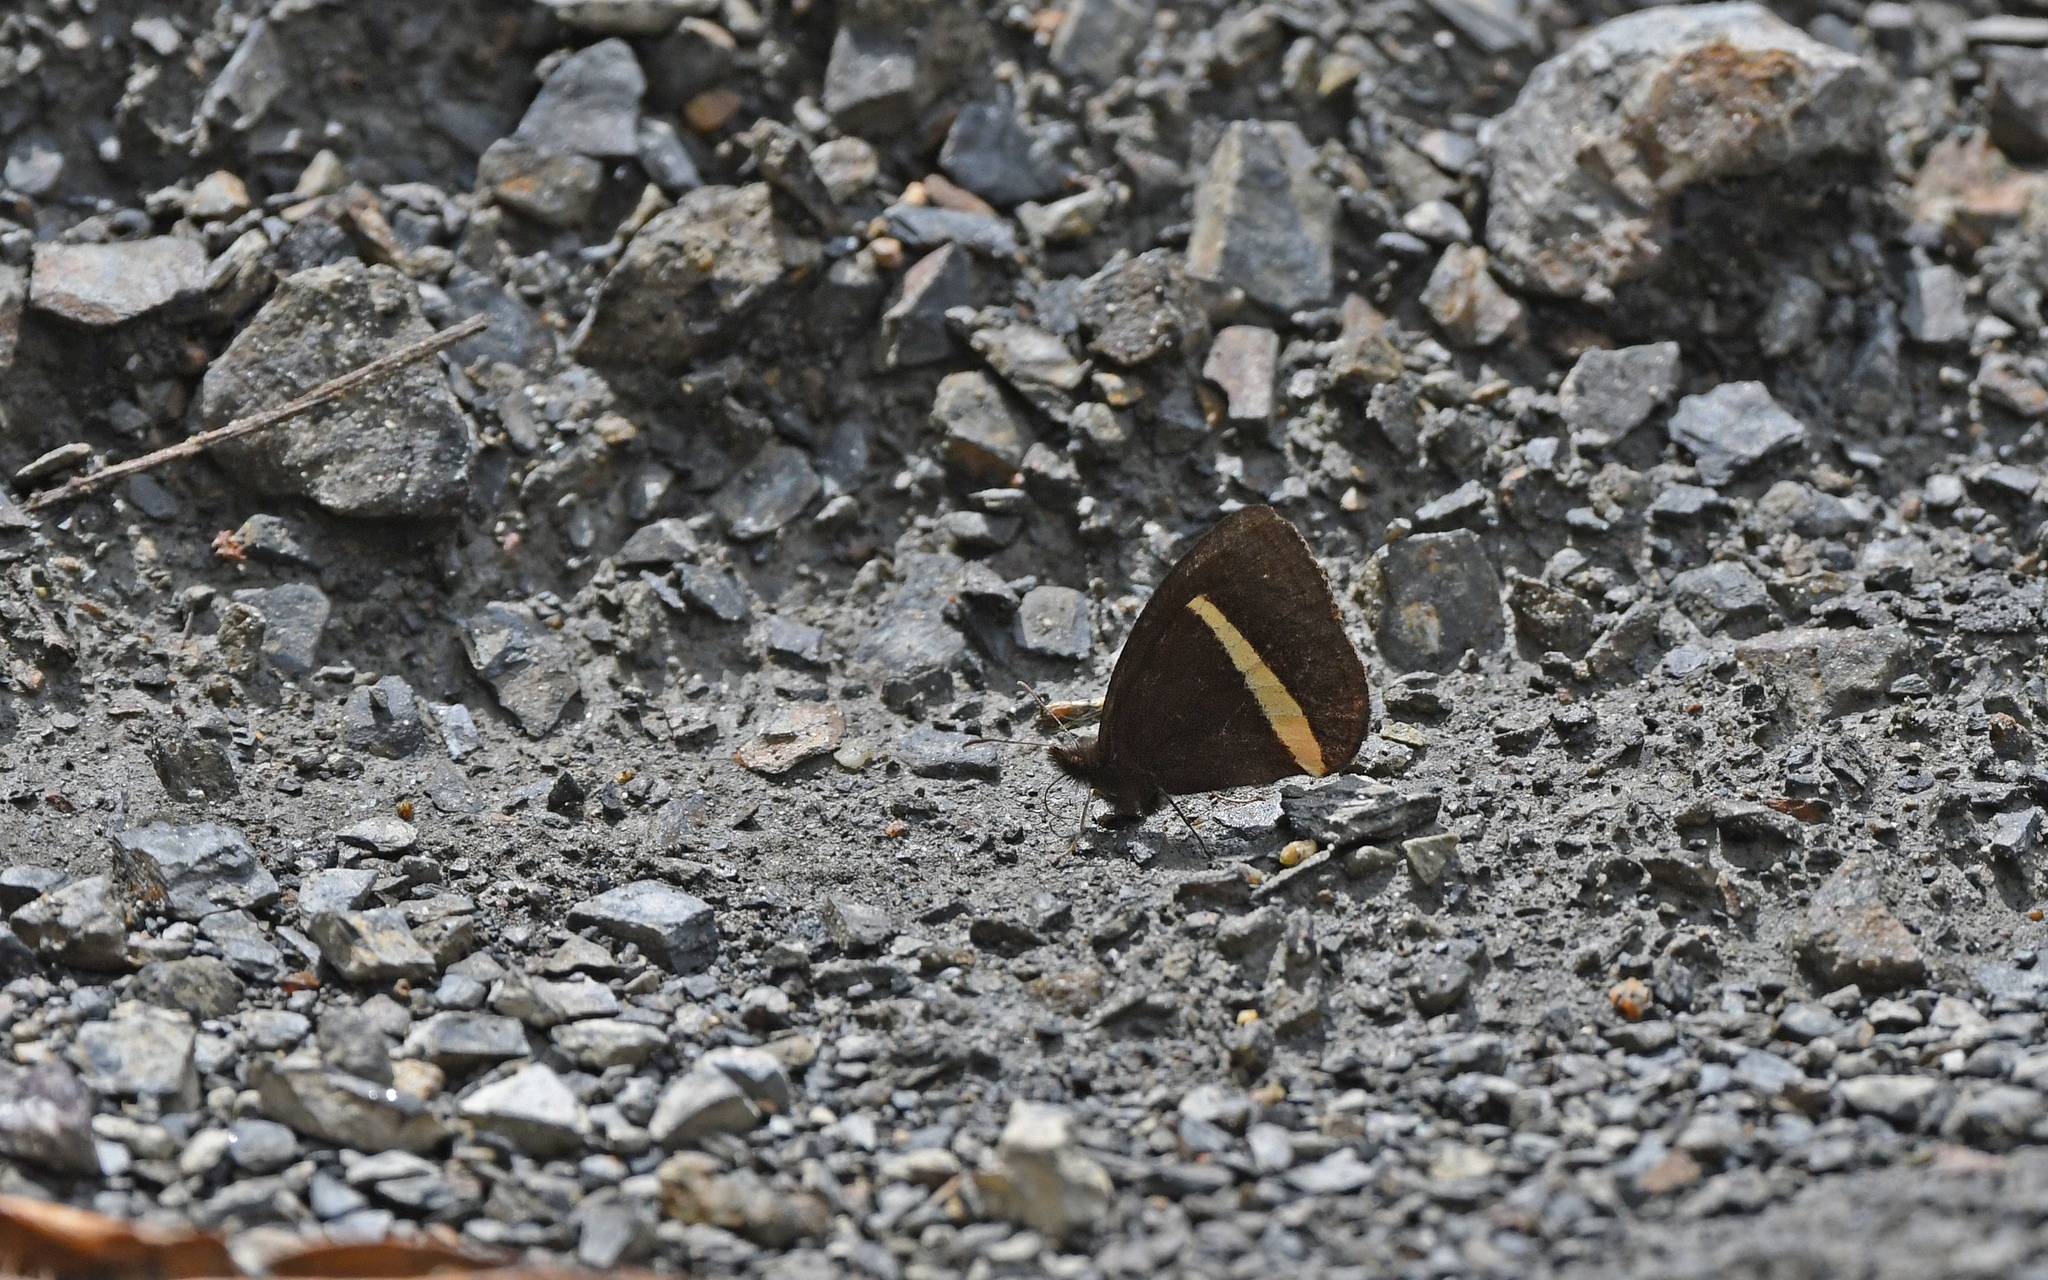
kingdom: Animalia
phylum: Arthropoda
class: Insecta
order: Lepidoptera
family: Nymphalidae
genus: Manerebia
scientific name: Manerebia
